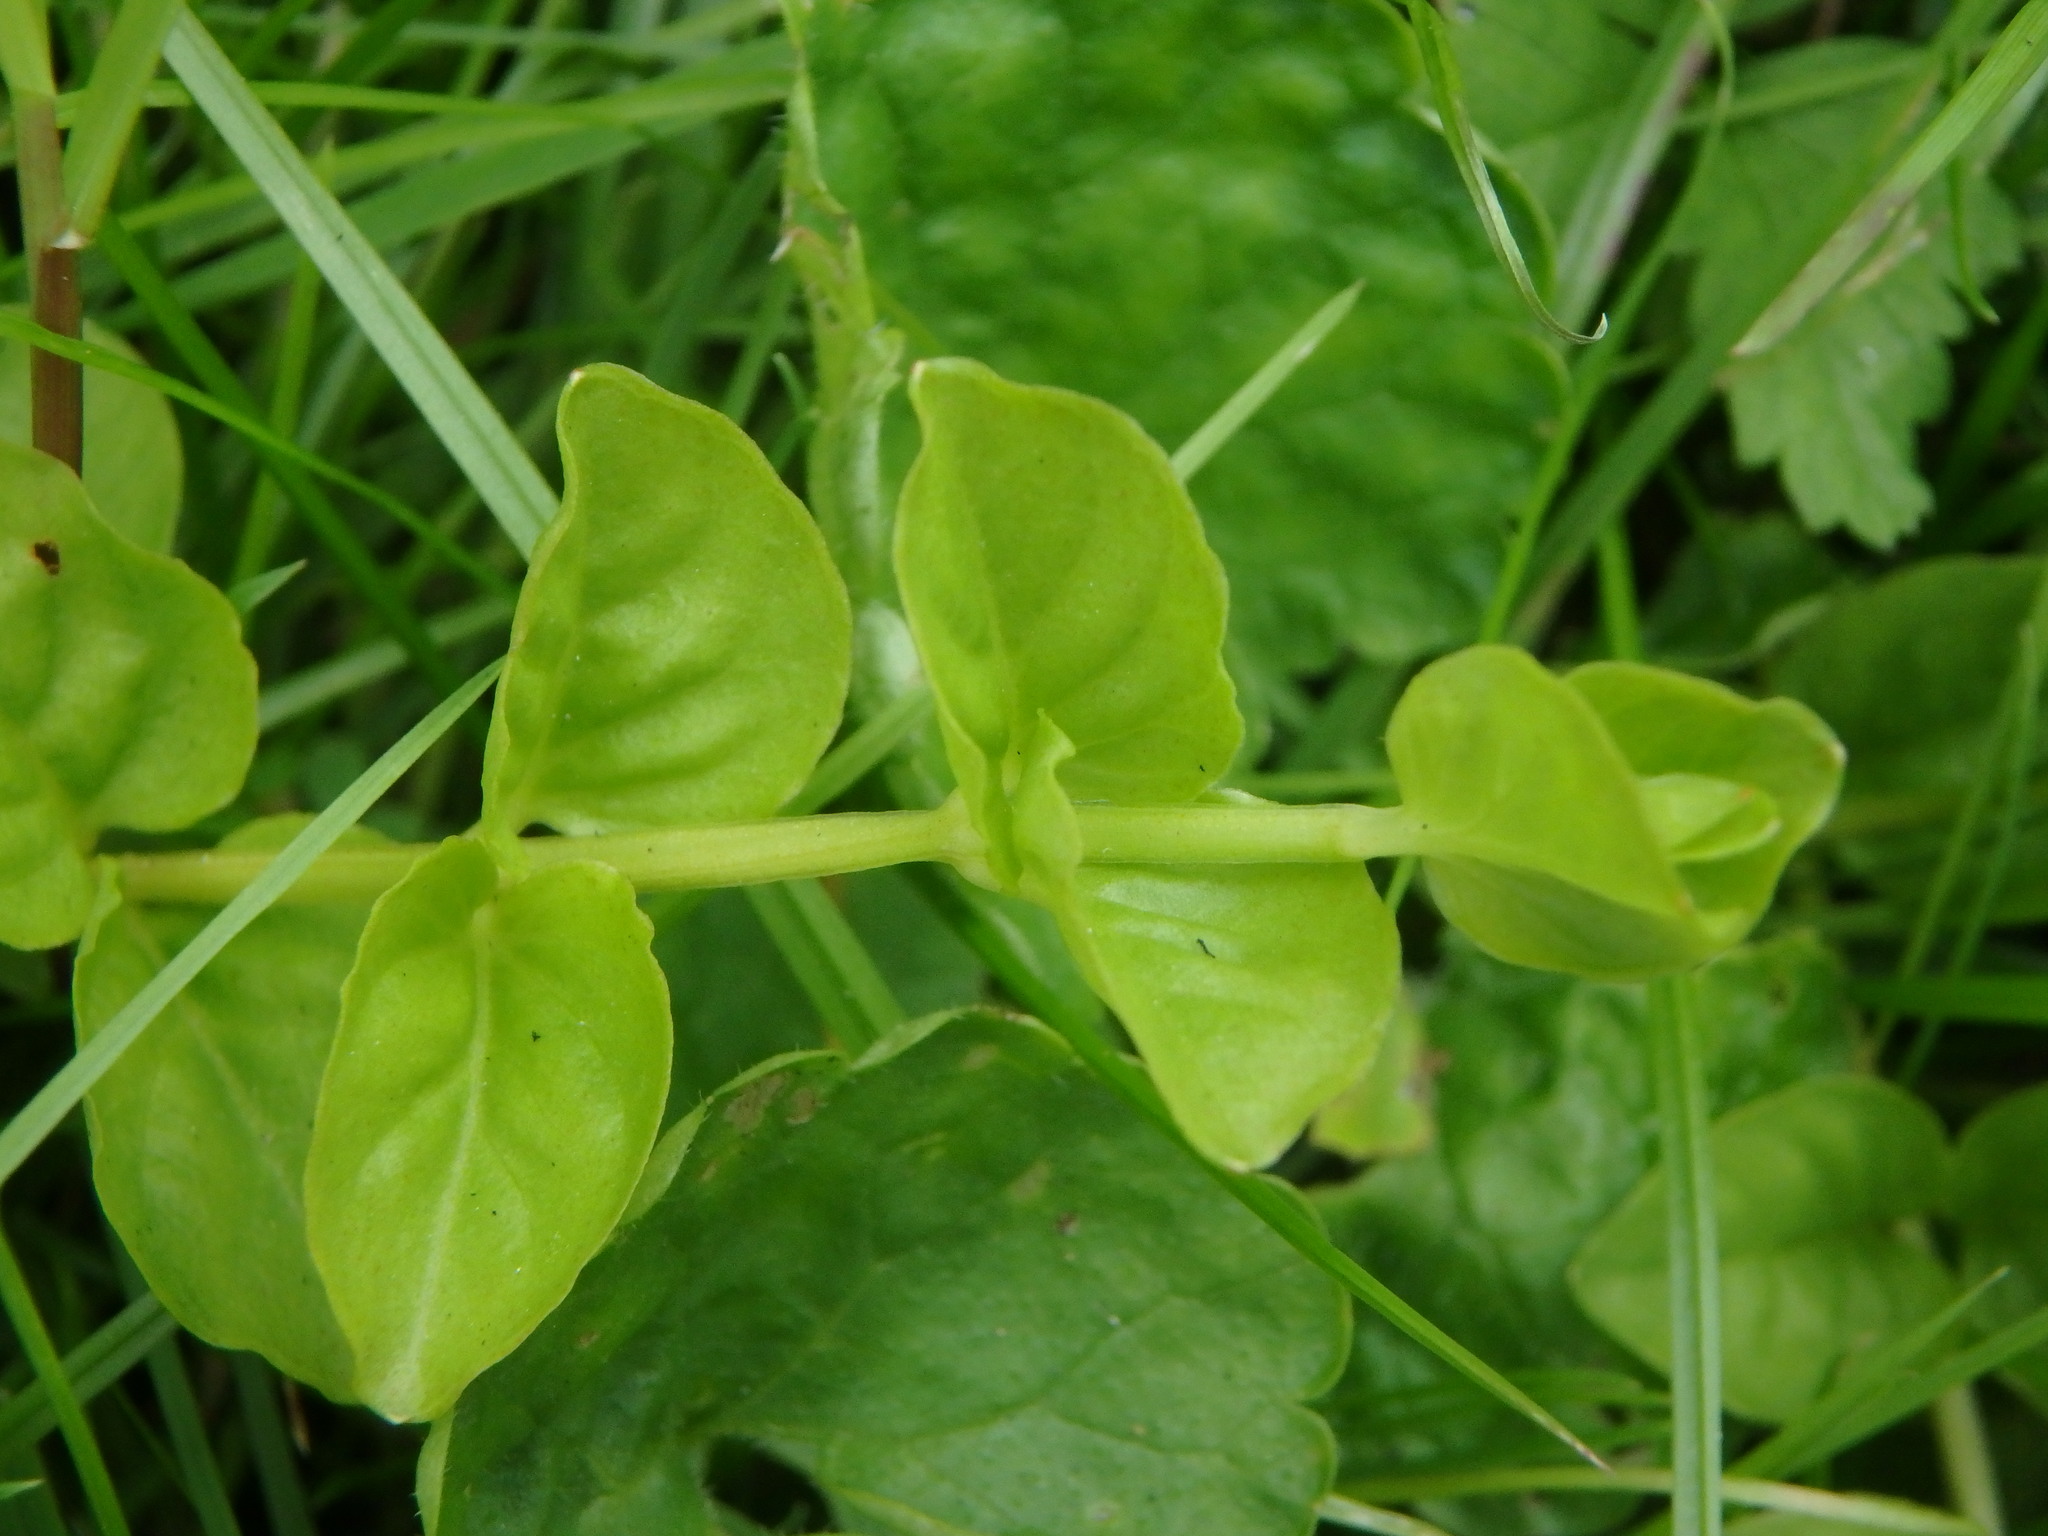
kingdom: Plantae
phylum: Tracheophyta
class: Magnoliopsida
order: Ericales
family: Primulaceae
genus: Lysimachia
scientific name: Lysimachia nummularia
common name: Moneywort
